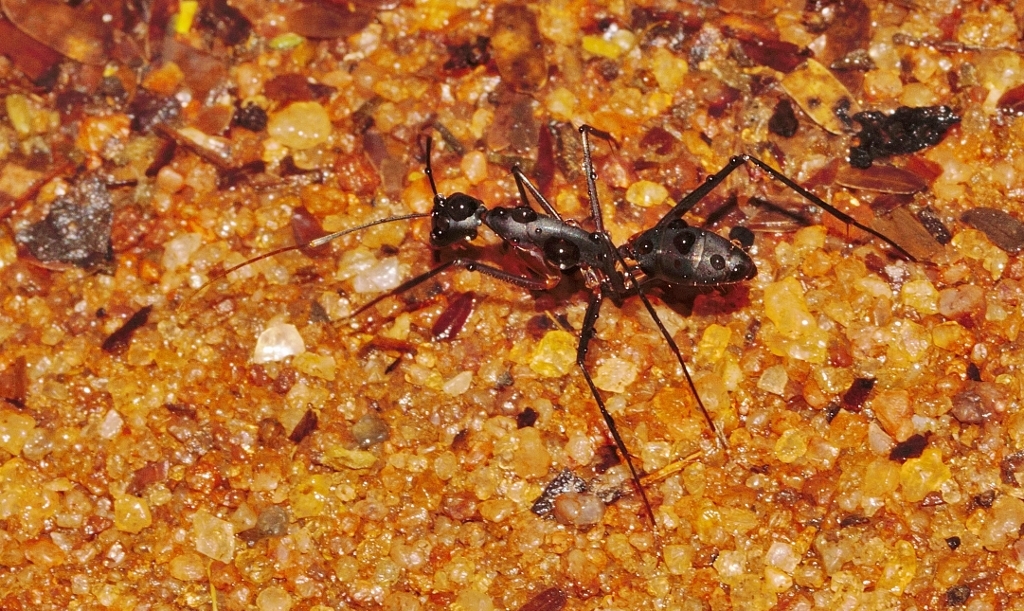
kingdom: Animalia
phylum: Arthropoda
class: Insecta
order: Hymenoptera
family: Formicidae
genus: Camponotus
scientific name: Camponotus etiolipes
